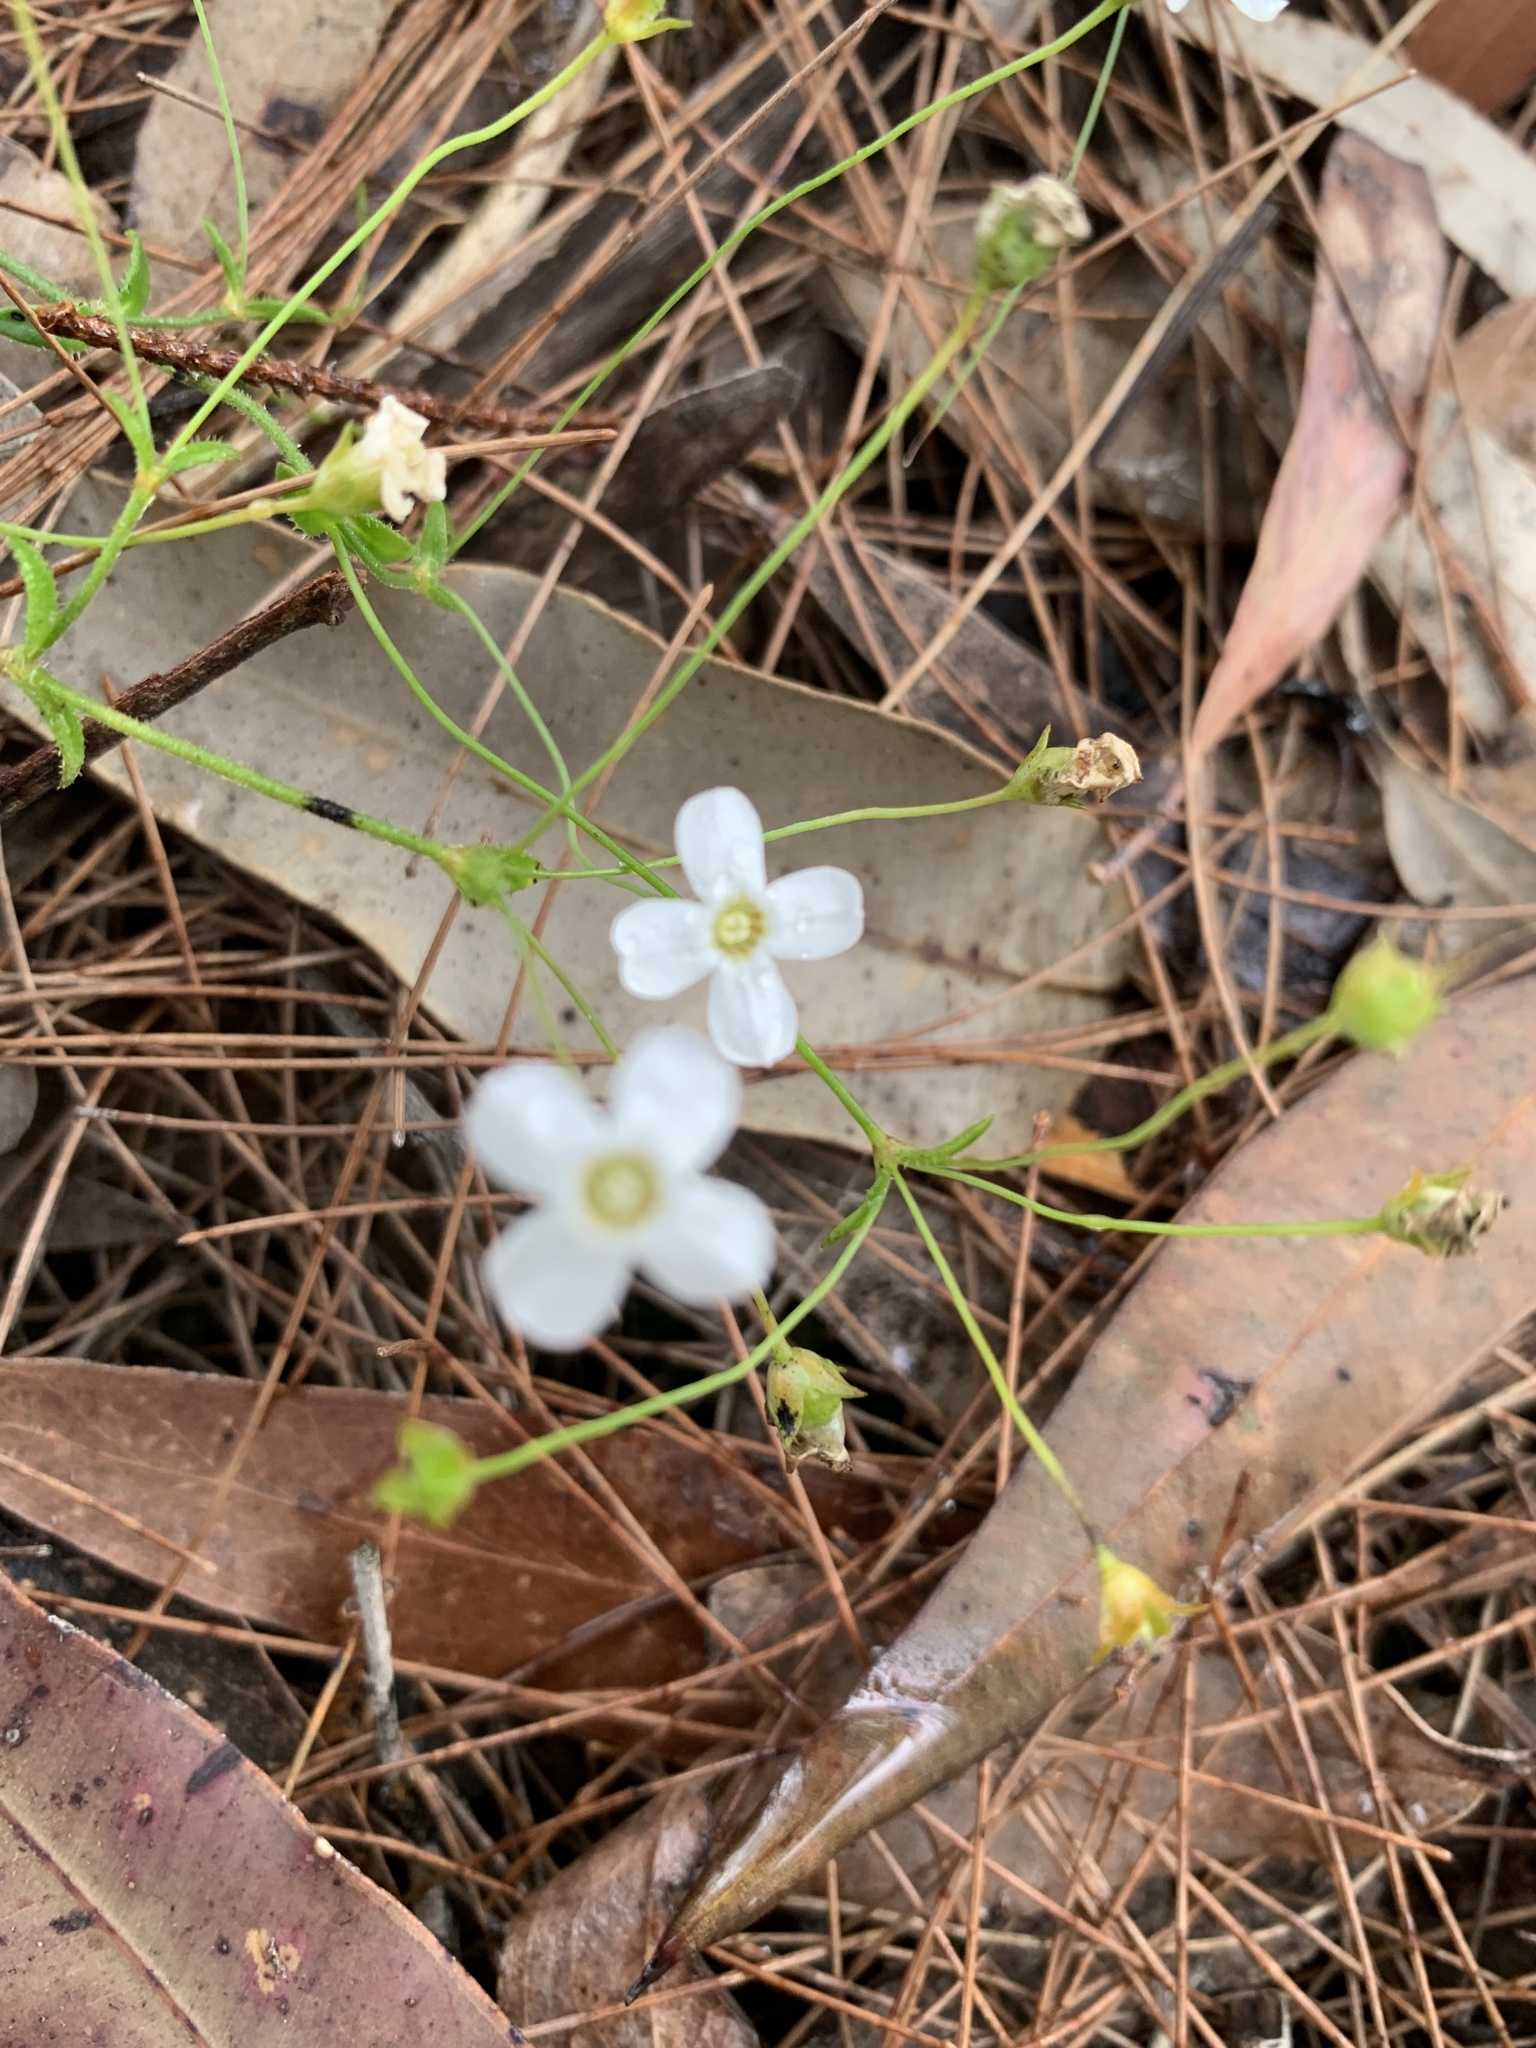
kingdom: Plantae
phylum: Tracheophyta
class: Magnoliopsida
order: Gentianales
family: Loganiaceae
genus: Mitrasacme
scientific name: Mitrasacme polymorpha
